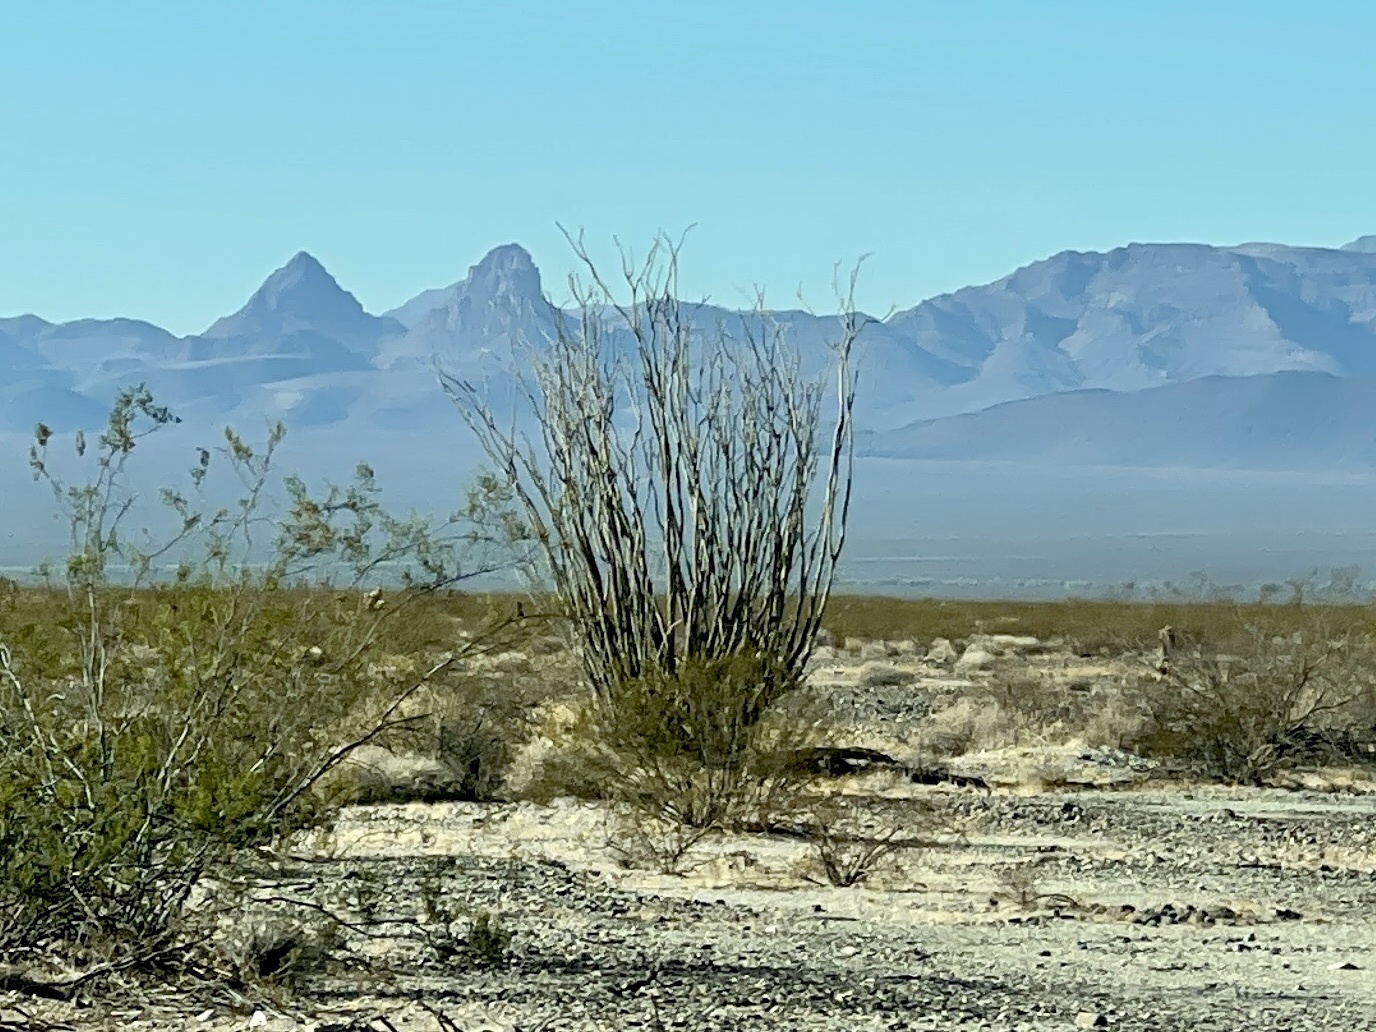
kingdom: Plantae
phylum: Tracheophyta
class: Magnoliopsida
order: Ericales
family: Fouquieriaceae
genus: Fouquieria
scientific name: Fouquieria splendens
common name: Vine-cactus
